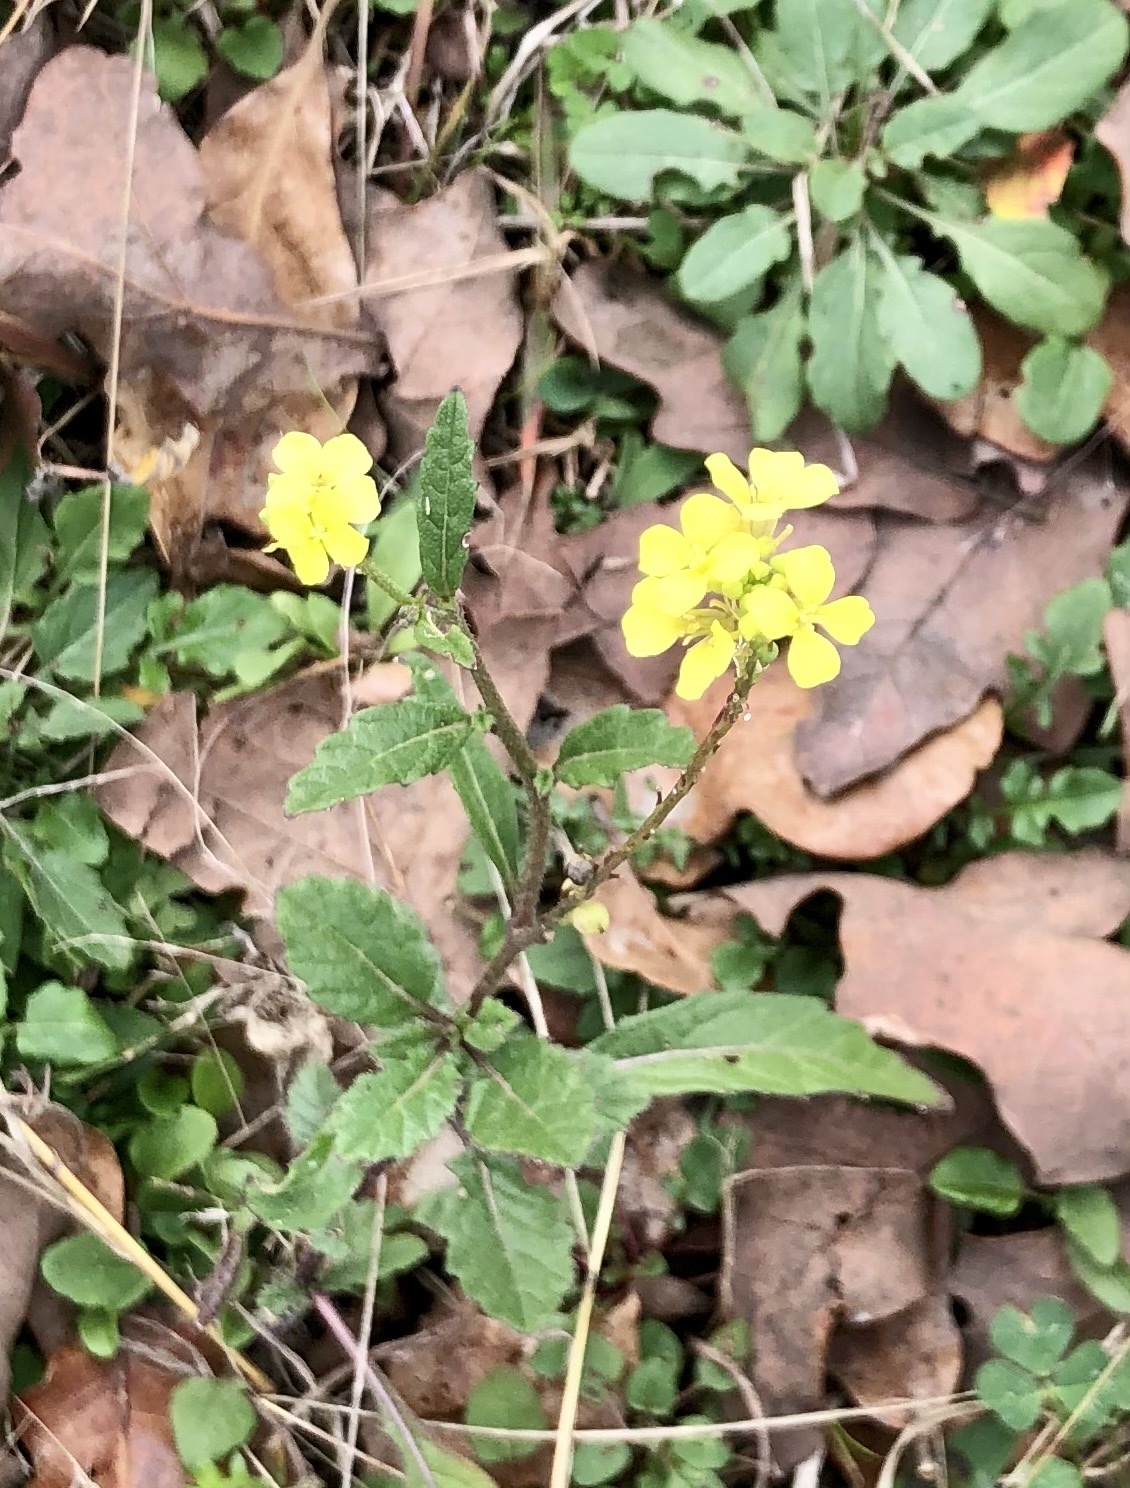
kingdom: Plantae
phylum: Tracheophyta
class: Magnoliopsida
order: Brassicales
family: Brassicaceae
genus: Rapistrum
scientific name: Rapistrum rugosum
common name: Annual bastardcabbage
